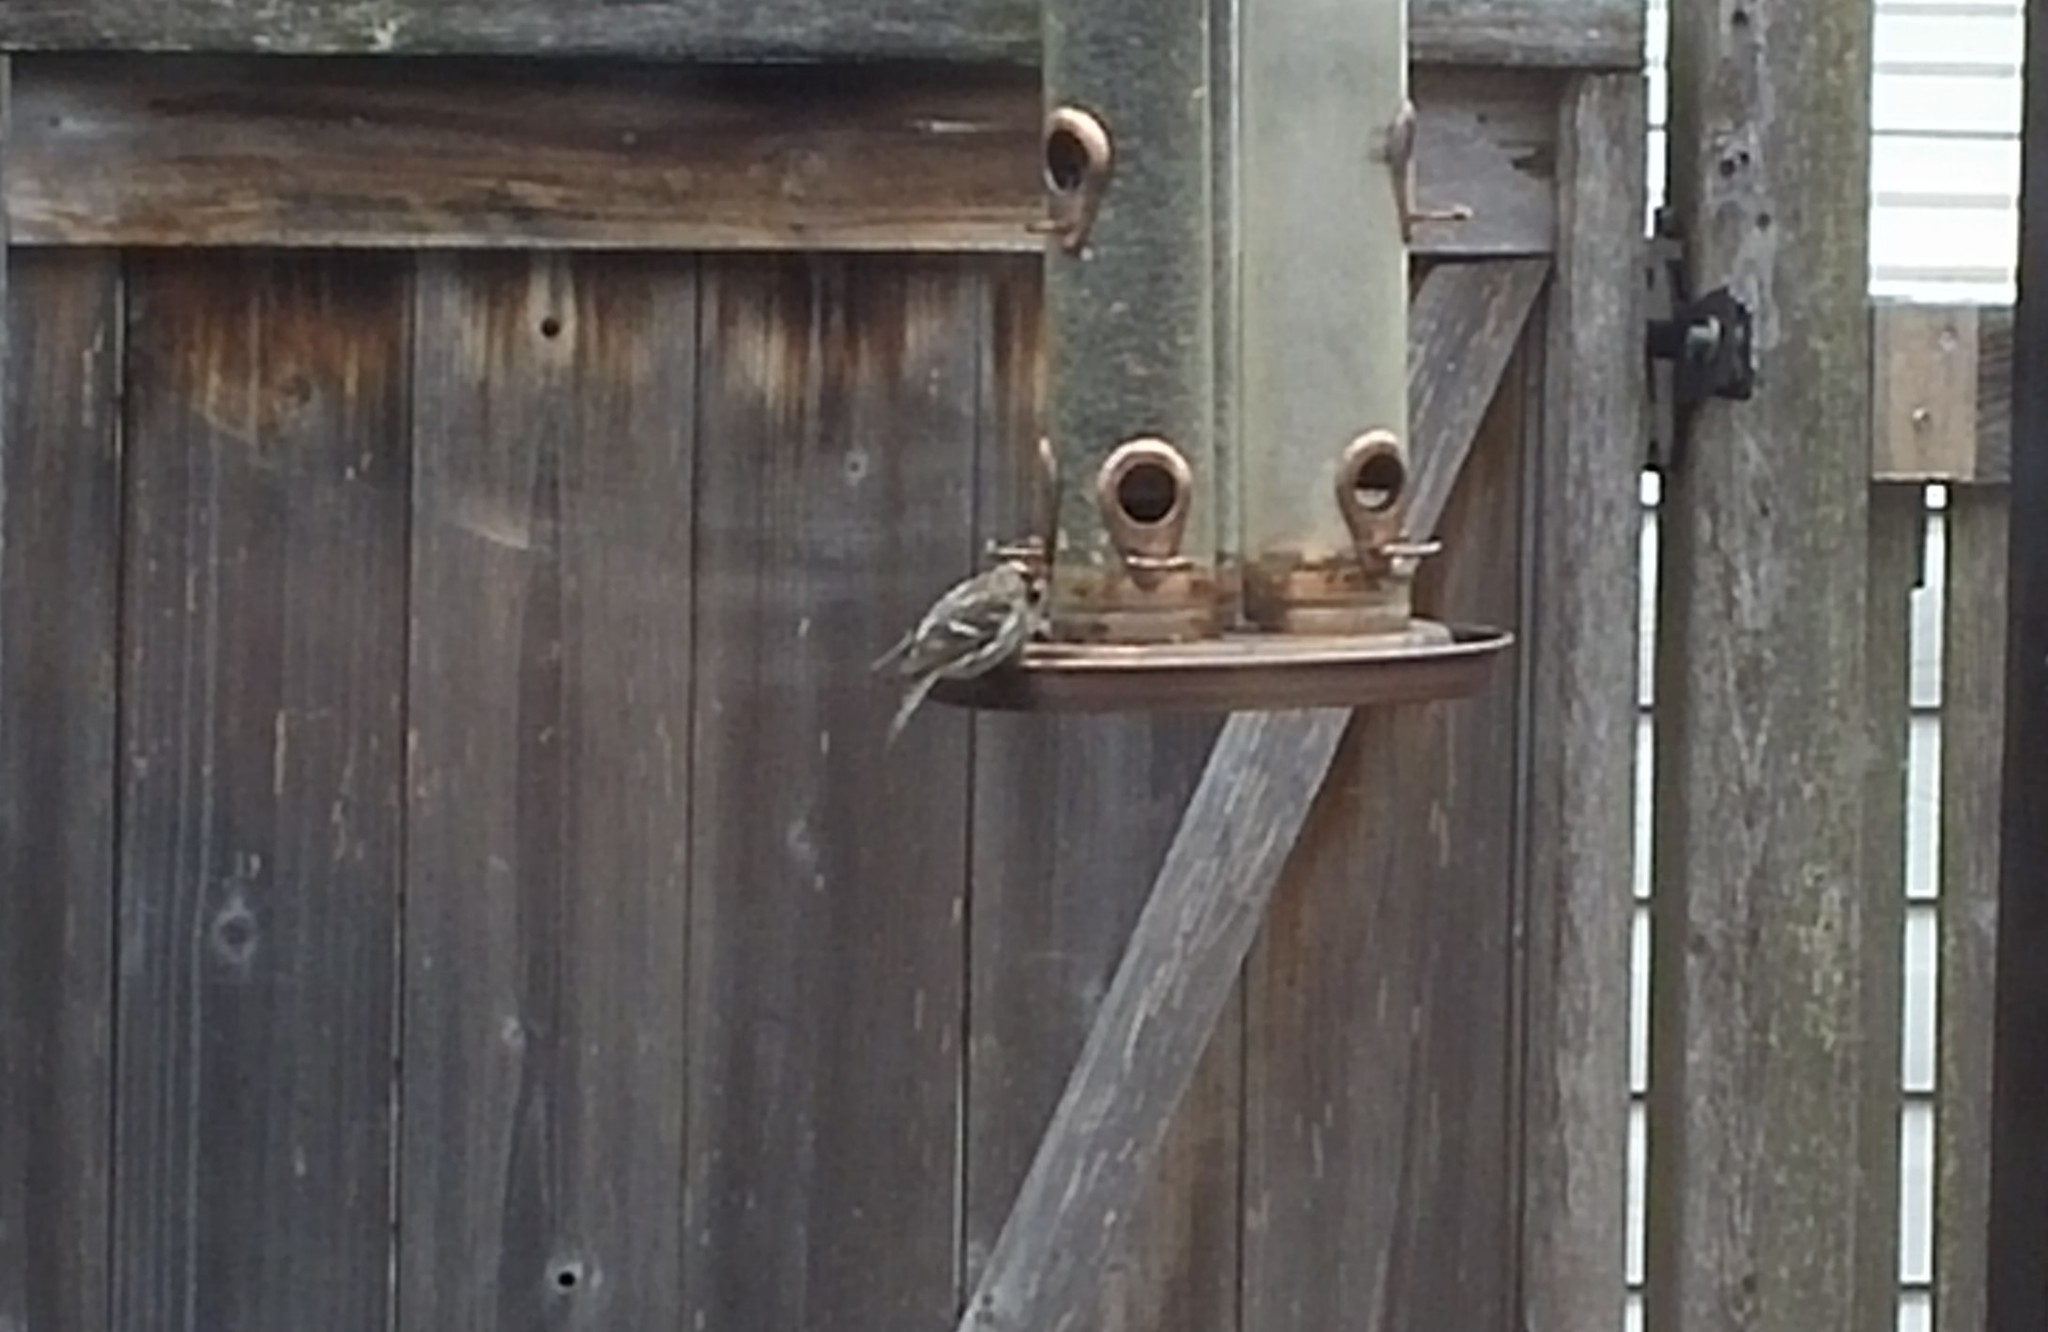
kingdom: Animalia
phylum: Chordata
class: Aves
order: Passeriformes
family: Fringillidae
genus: Acanthis
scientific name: Acanthis flammea
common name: Common redpoll
